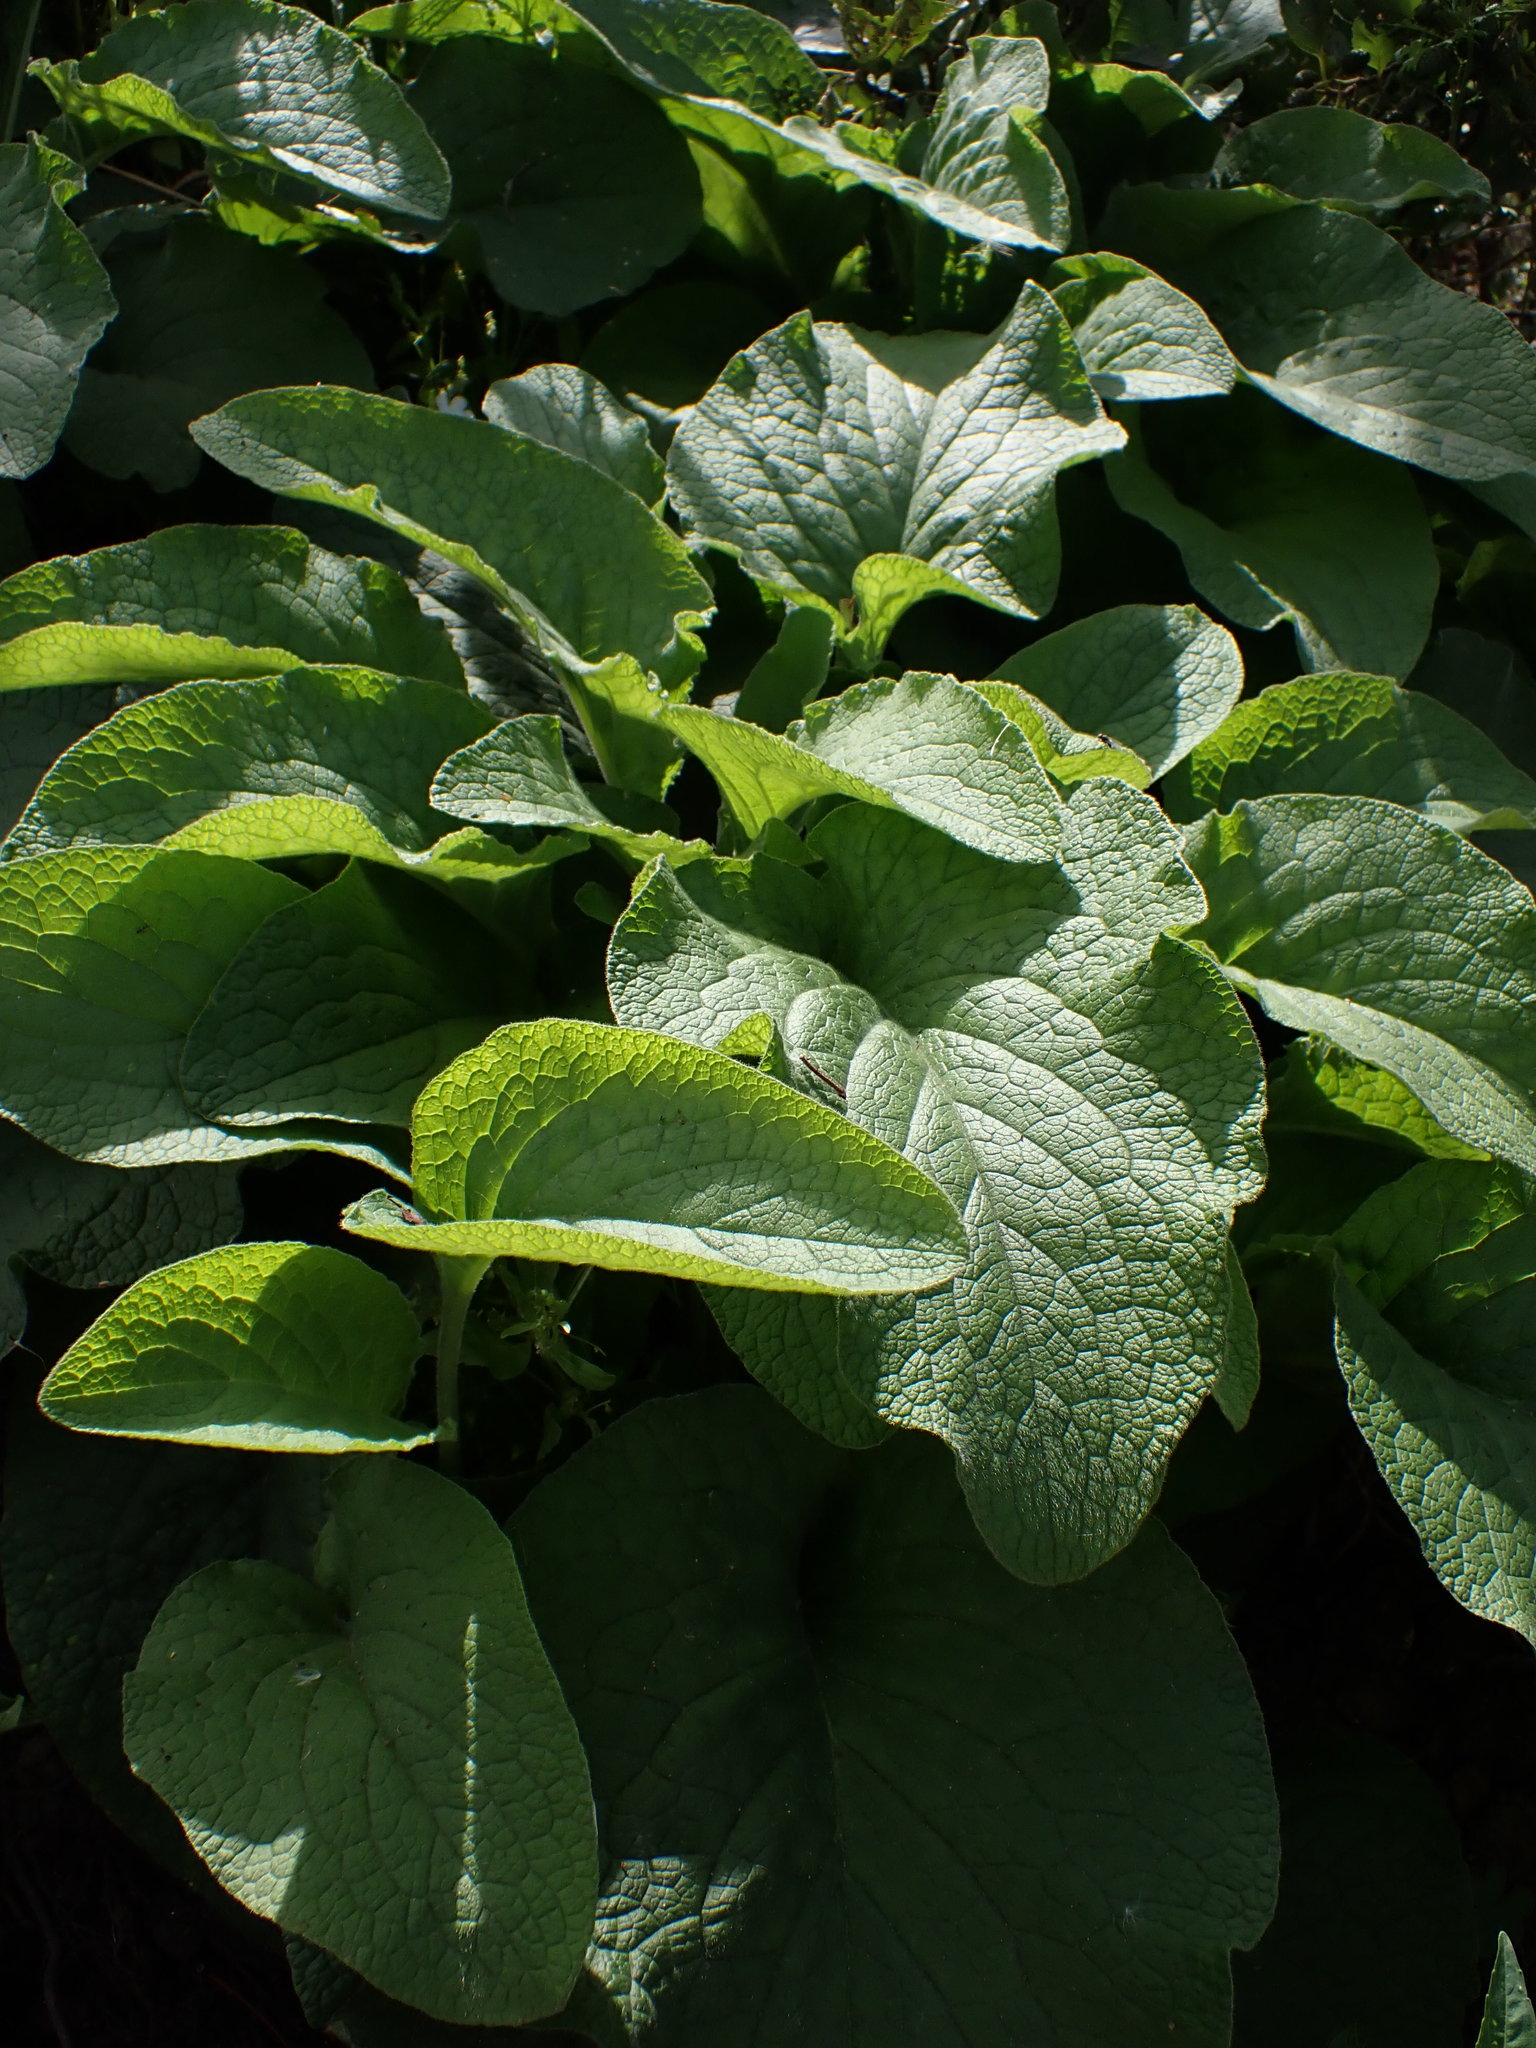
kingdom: Plantae
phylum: Tracheophyta
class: Magnoliopsida
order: Lamiales
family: Plantaginaceae
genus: Digitalis
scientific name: Digitalis purpurea
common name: Foxglove
